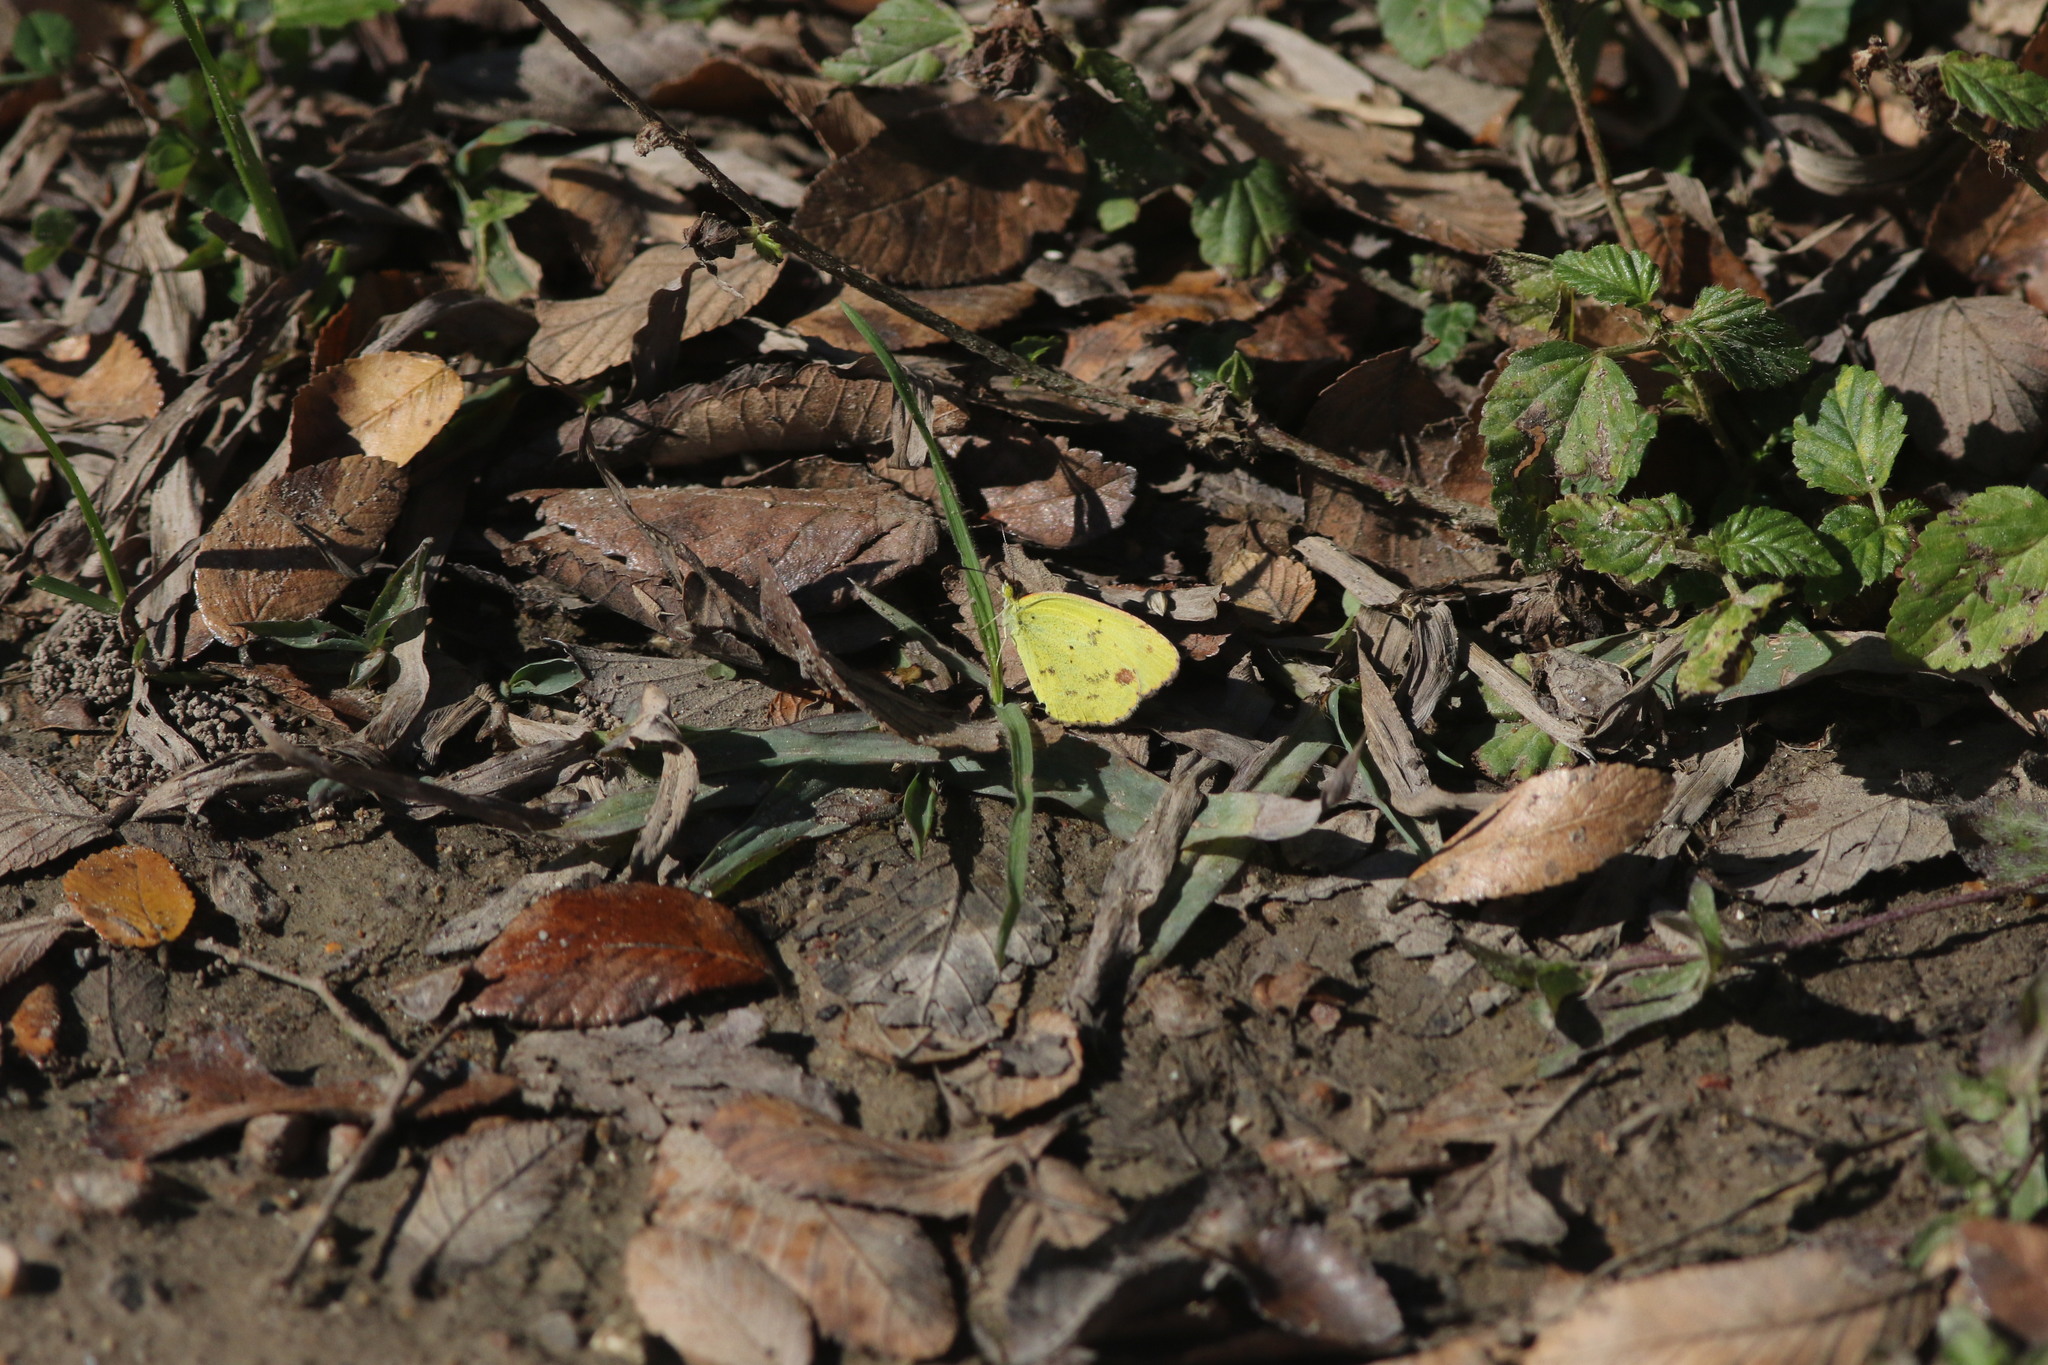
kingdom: Animalia
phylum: Arthropoda
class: Insecta
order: Lepidoptera
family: Pieridae
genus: Pyrisitia
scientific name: Pyrisitia lisa
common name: Little yellow
